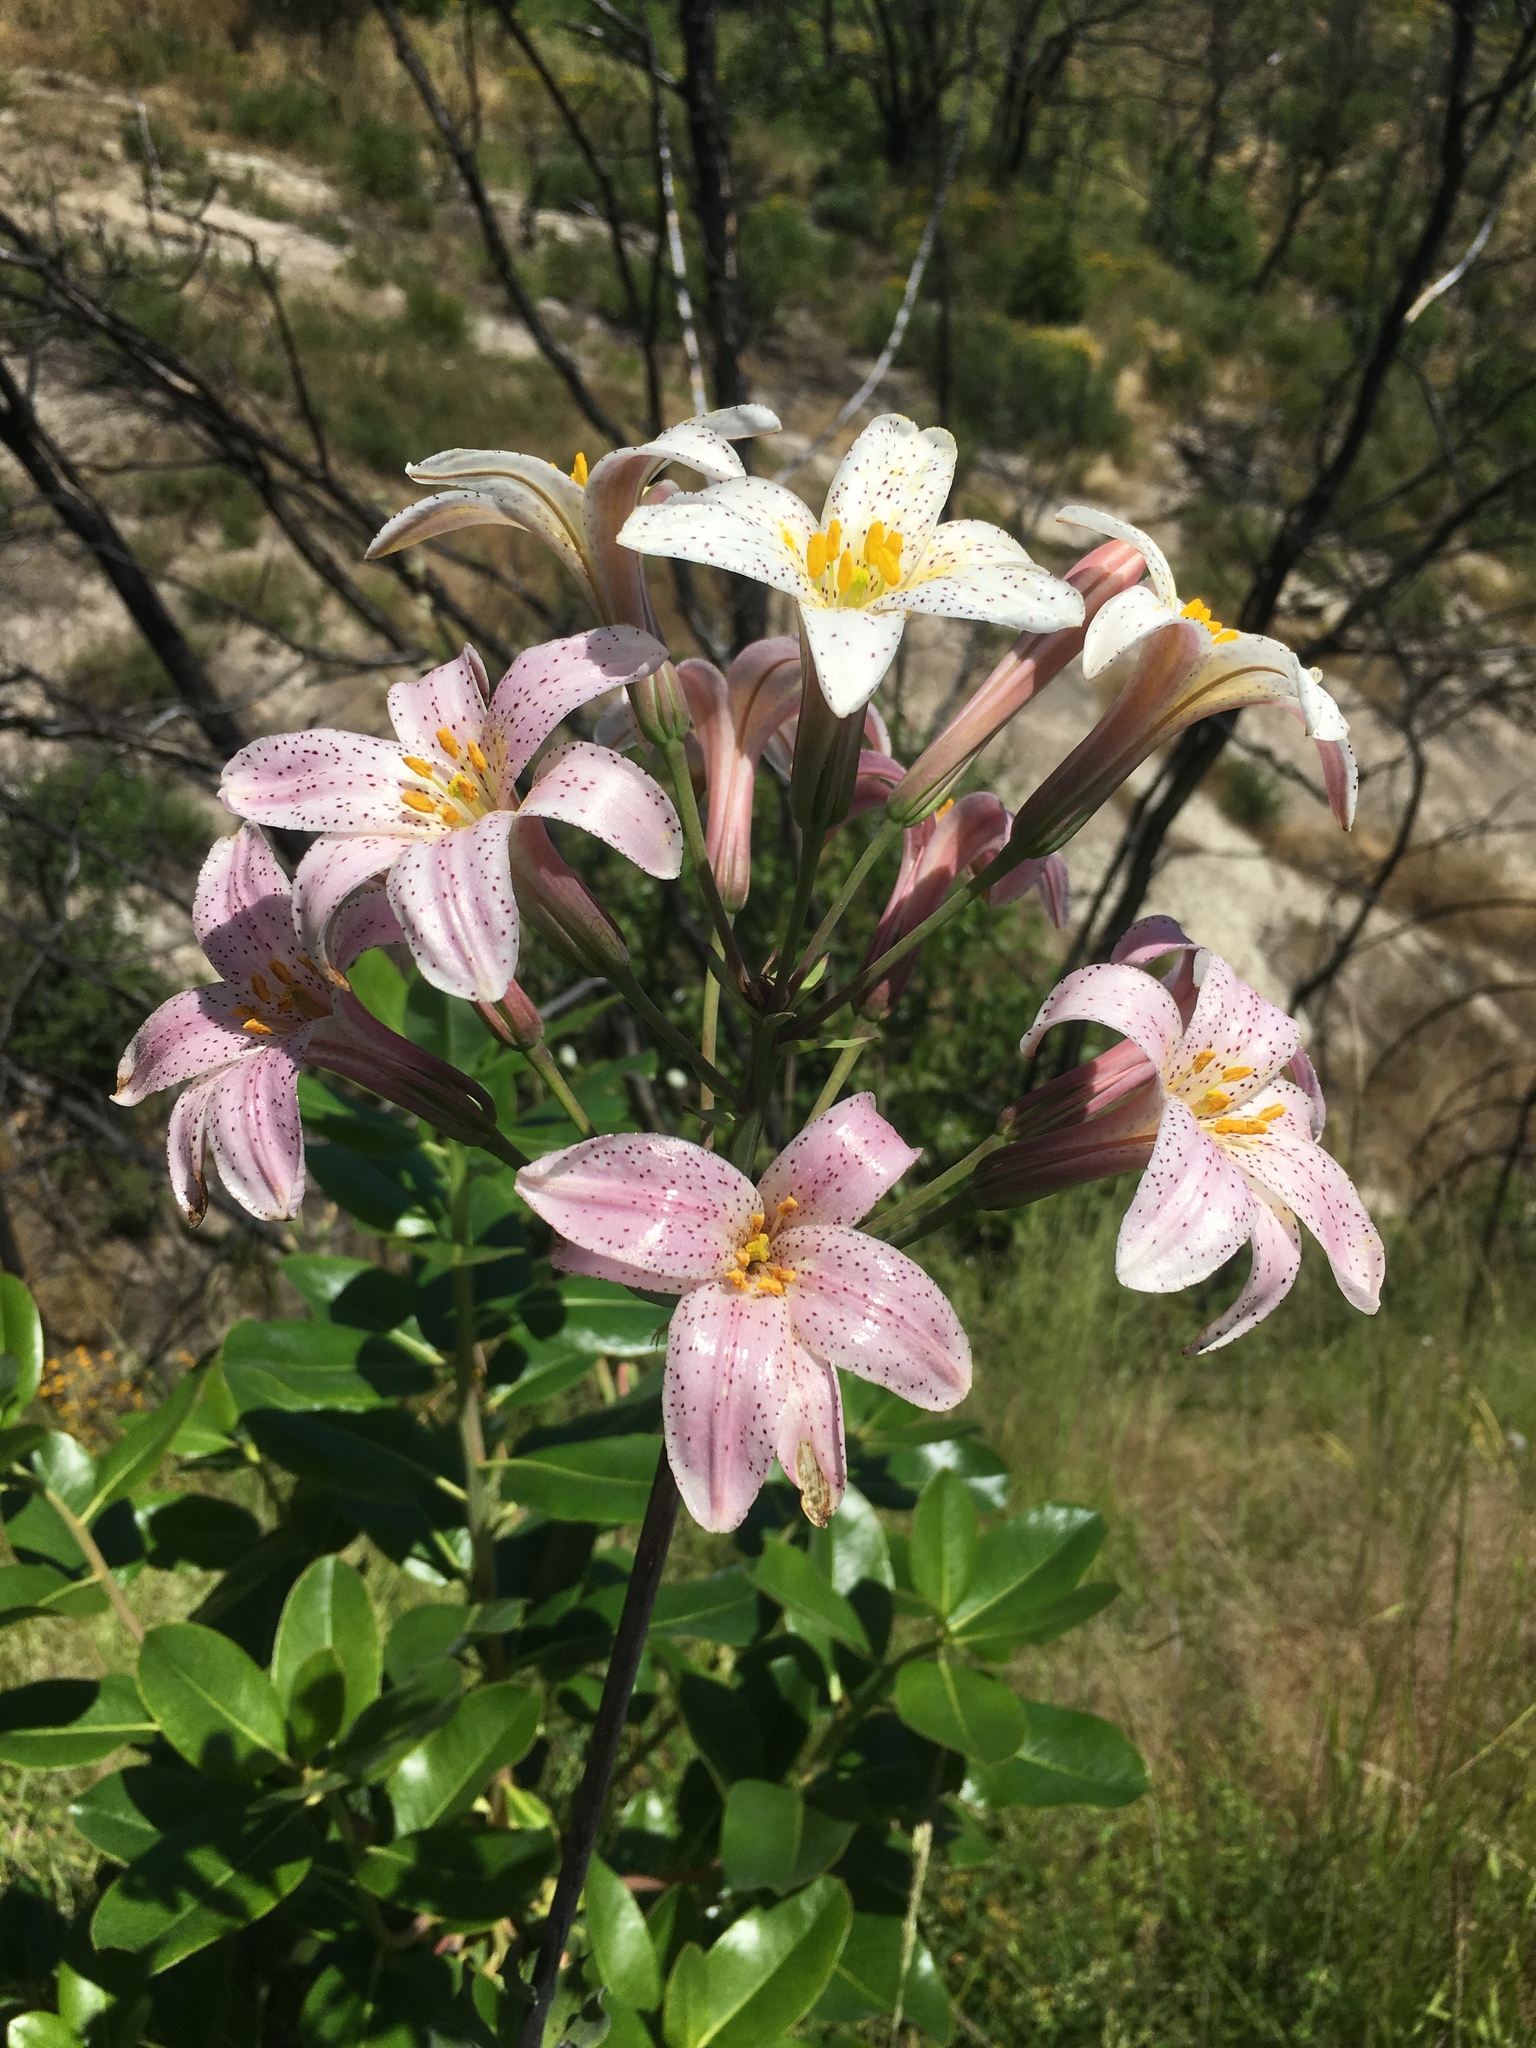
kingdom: Plantae
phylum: Tracheophyta
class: Liliopsida
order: Liliales
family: Liliaceae
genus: Lilium
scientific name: Lilium rubescens
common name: Chamise lily
